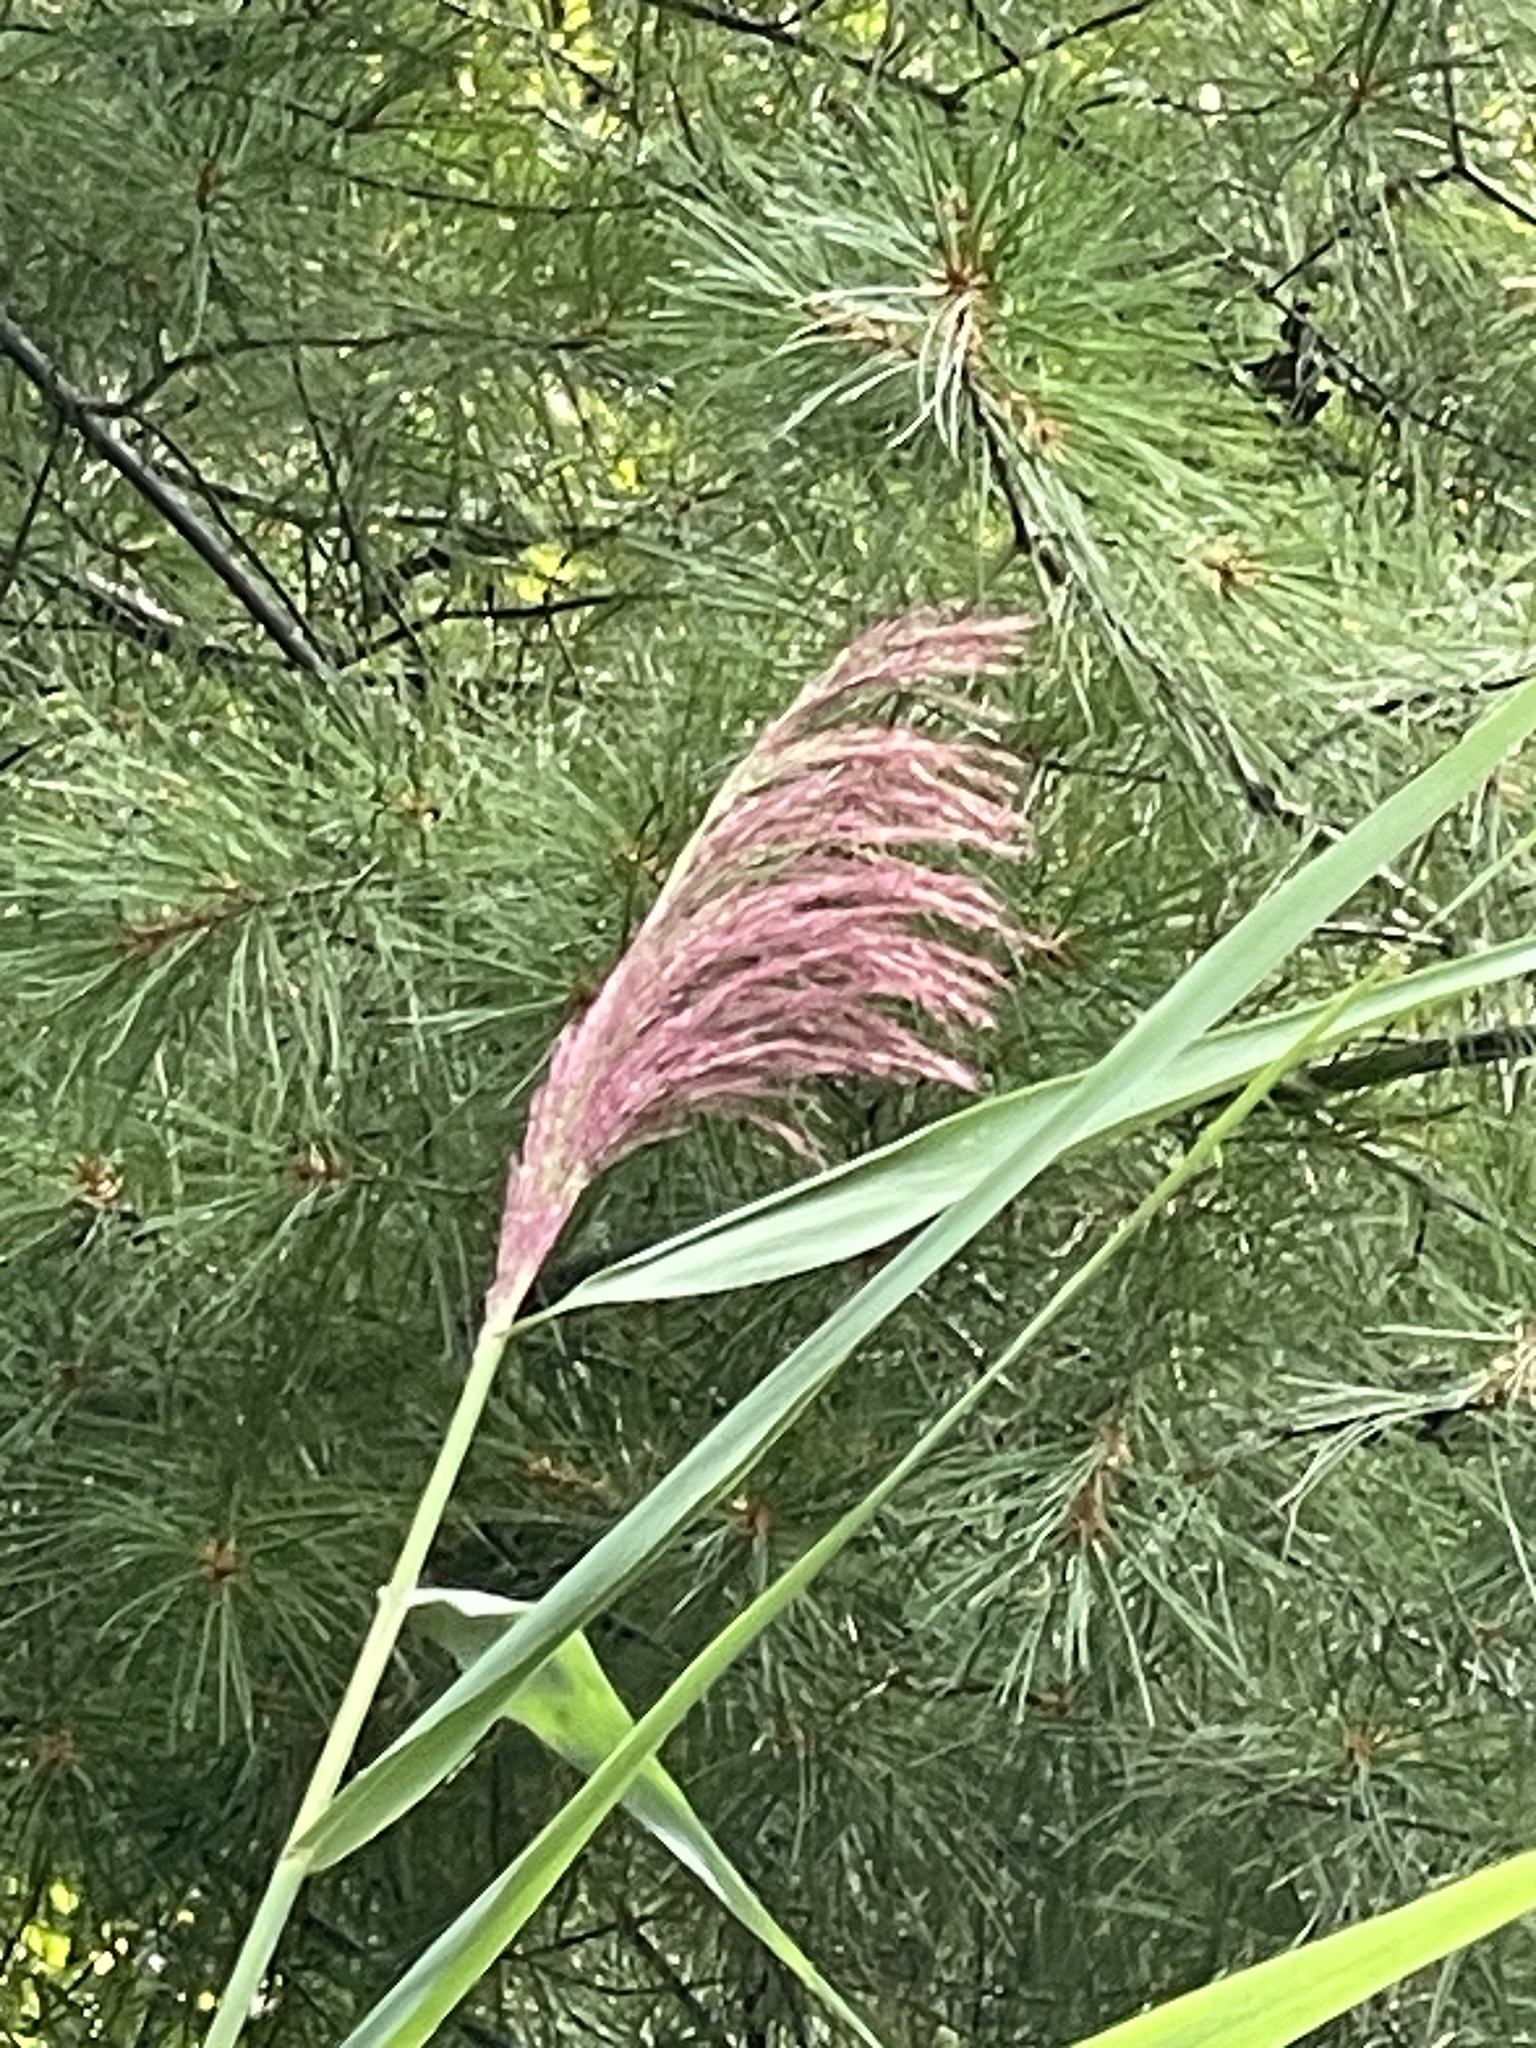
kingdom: Plantae
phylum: Tracheophyta
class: Liliopsida
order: Poales
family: Poaceae
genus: Phragmites
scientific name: Phragmites australis
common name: Common reed
